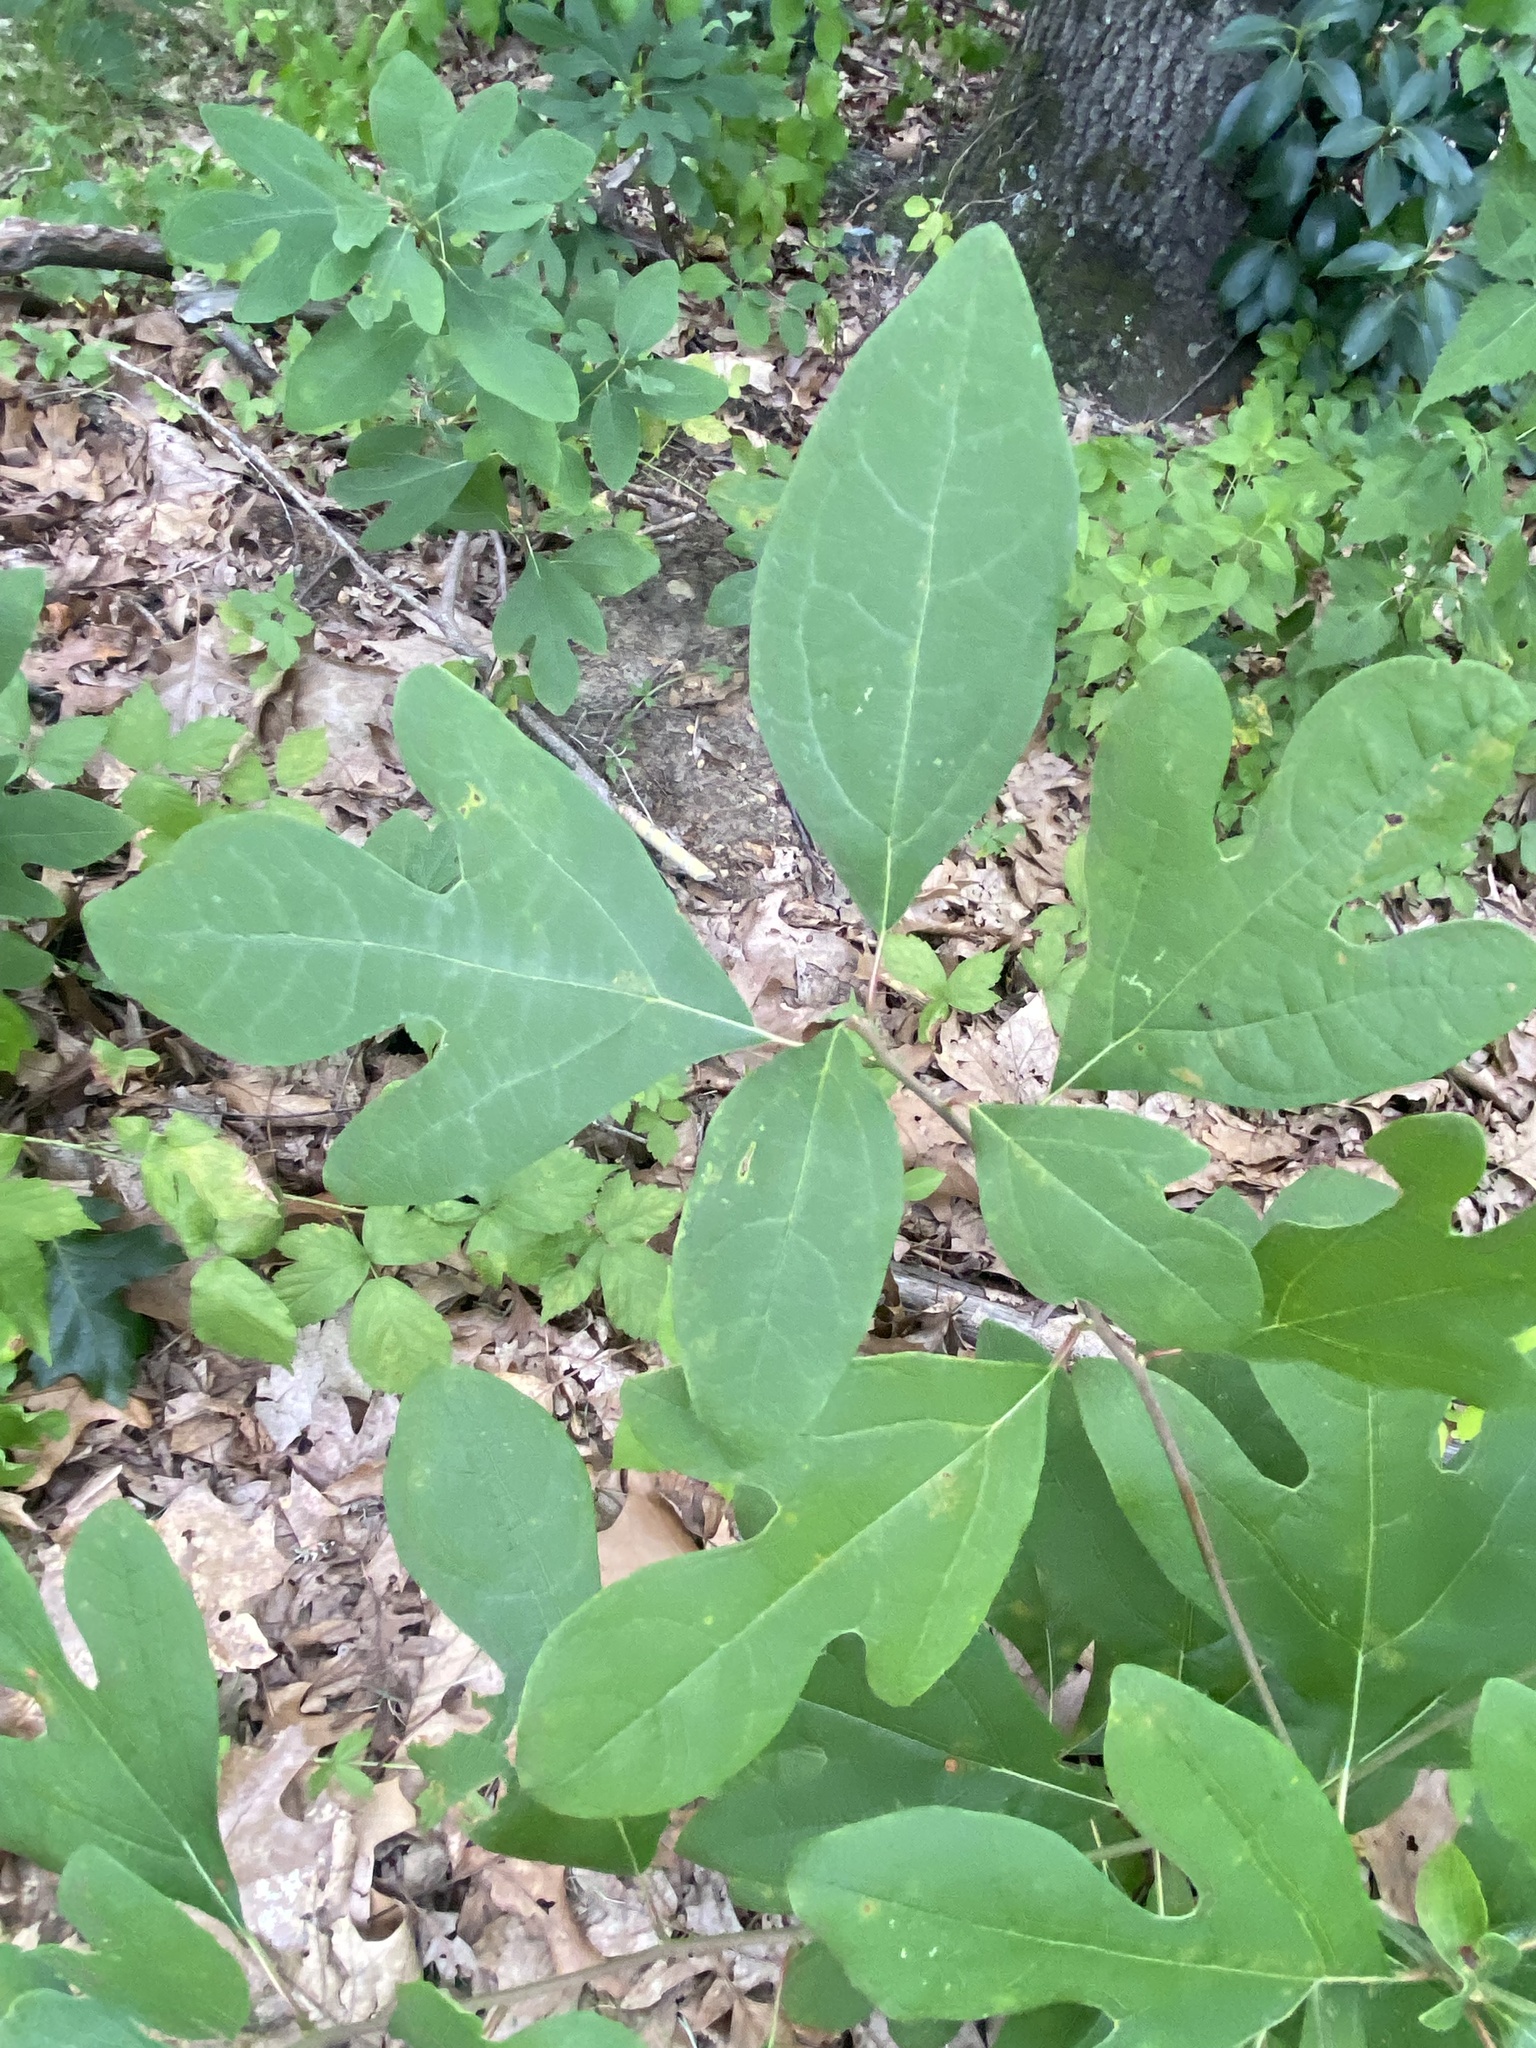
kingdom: Plantae
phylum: Tracheophyta
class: Magnoliopsida
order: Laurales
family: Lauraceae
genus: Sassafras
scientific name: Sassafras albidum
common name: Sassafras
